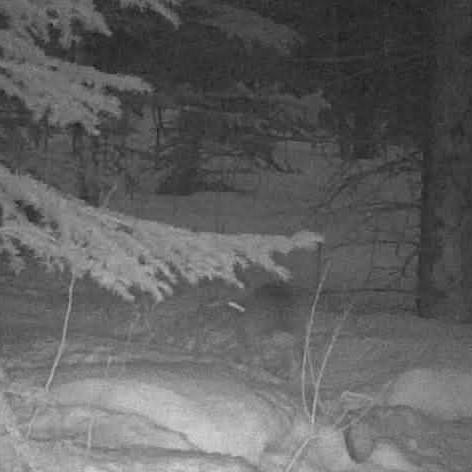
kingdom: Animalia
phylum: Chordata
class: Mammalia
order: Lagomorpha
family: Leporidae
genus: Lepus
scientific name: Lepus americanus
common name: Snowshoe hare
